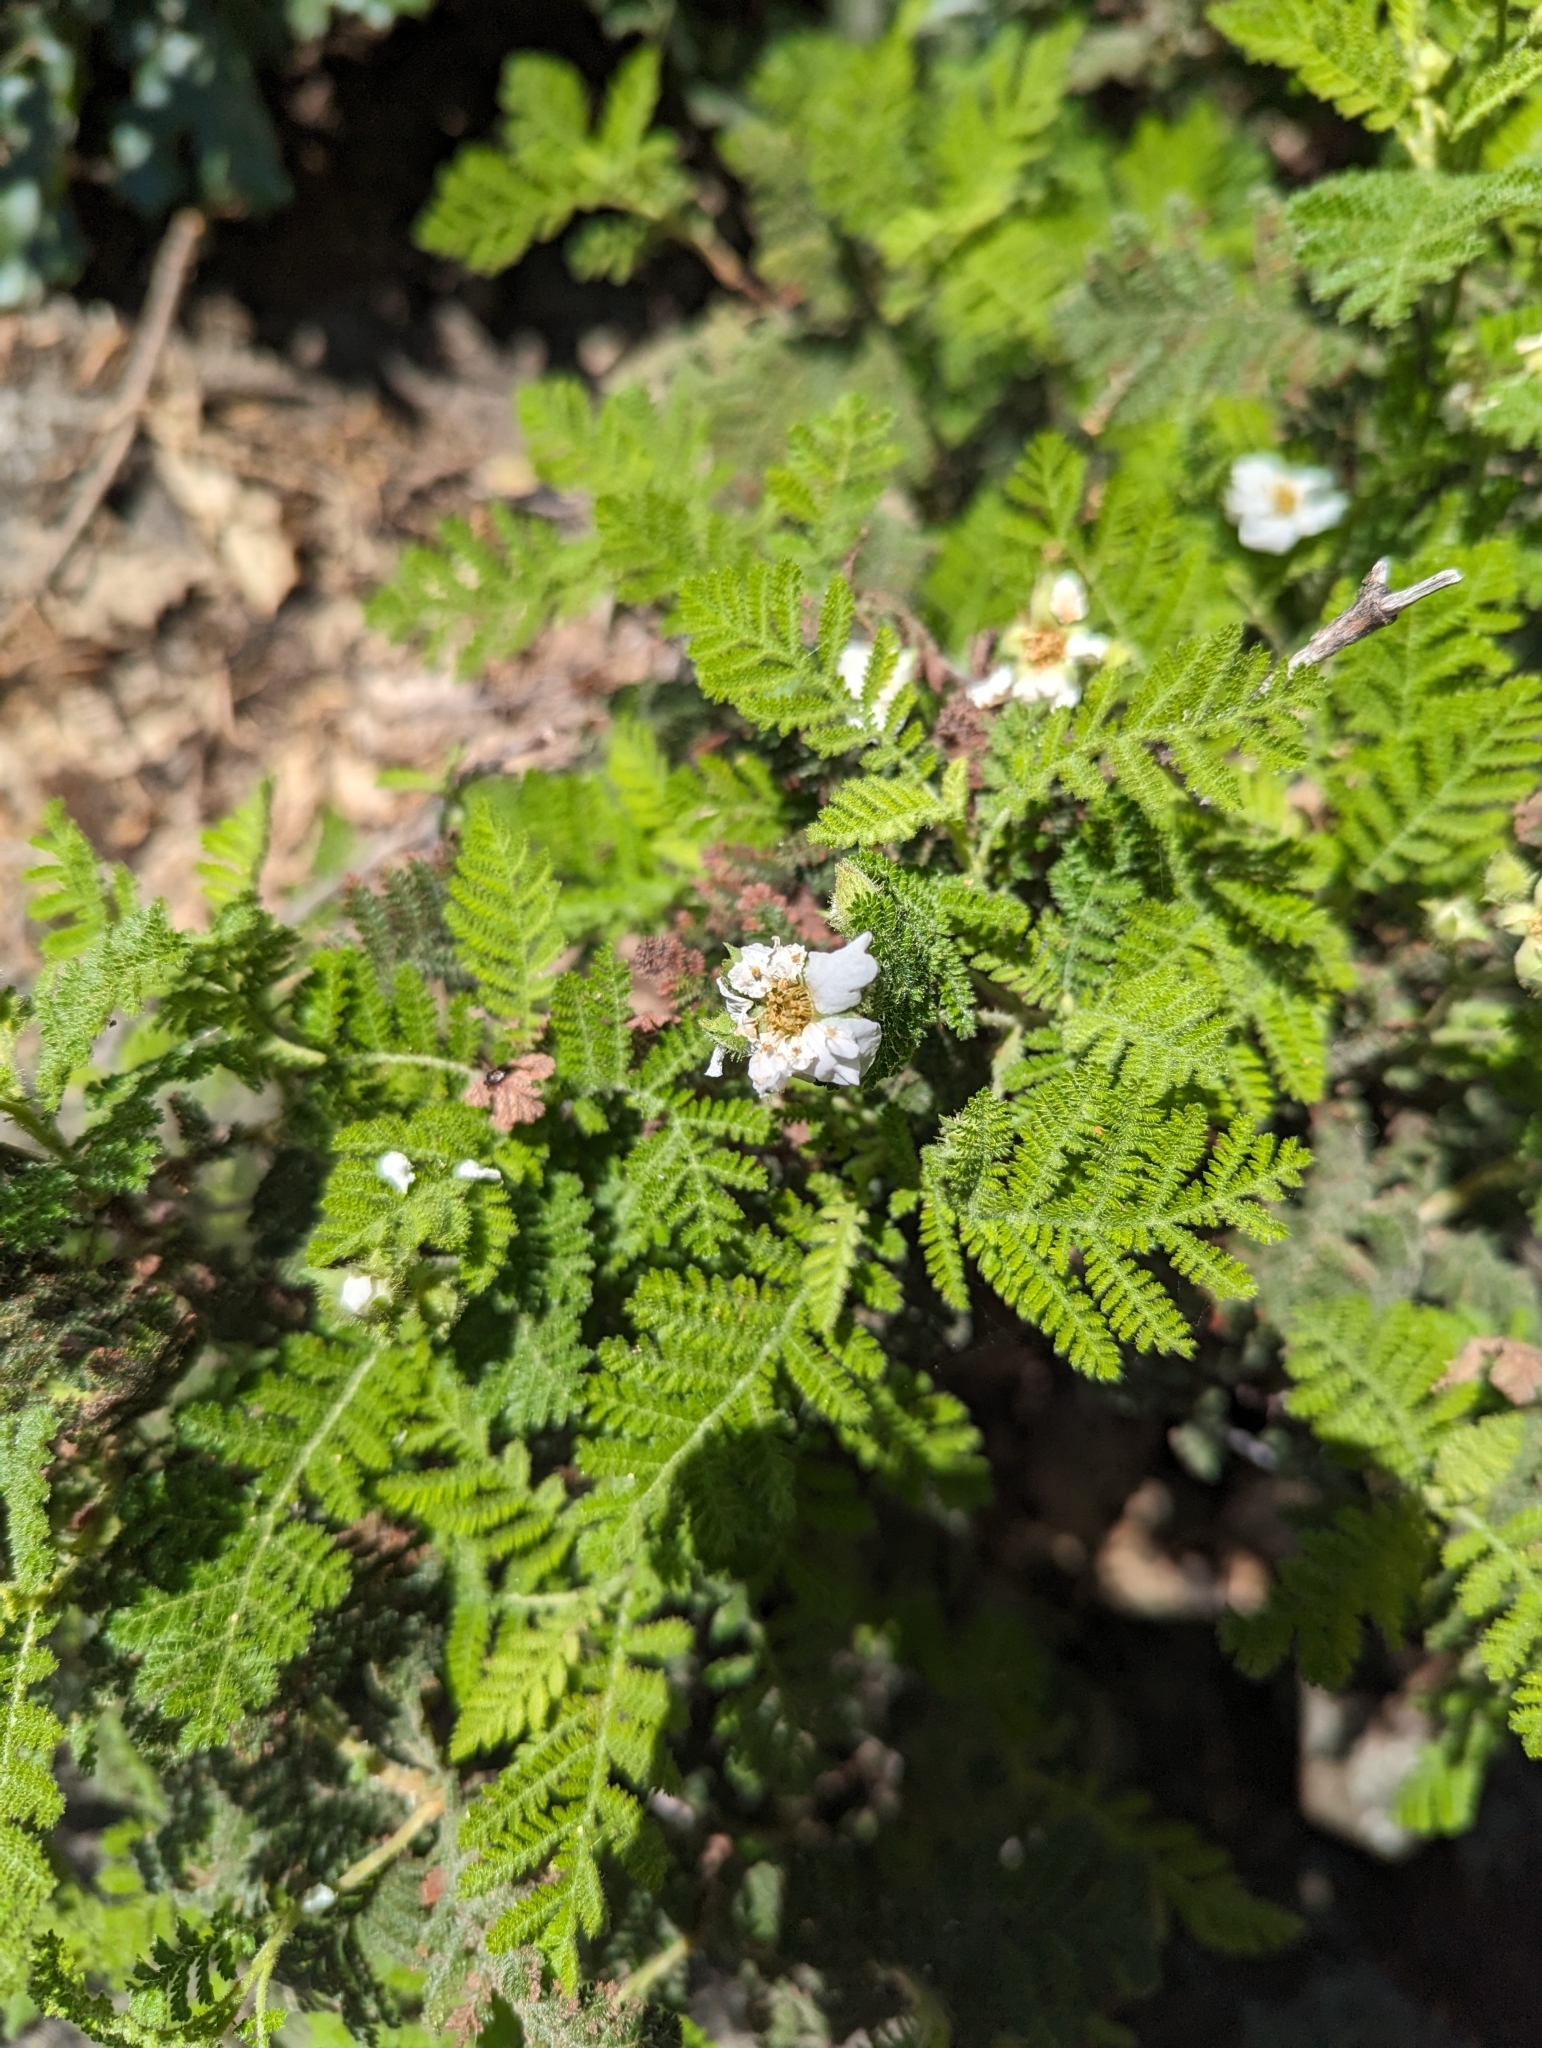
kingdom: Plantae
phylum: Tracheophyta
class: Magnoliopsida
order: Rosales
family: Rosaceae
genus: Chamaebatia
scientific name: Chamaebatia foliolosa
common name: Mountain misery
